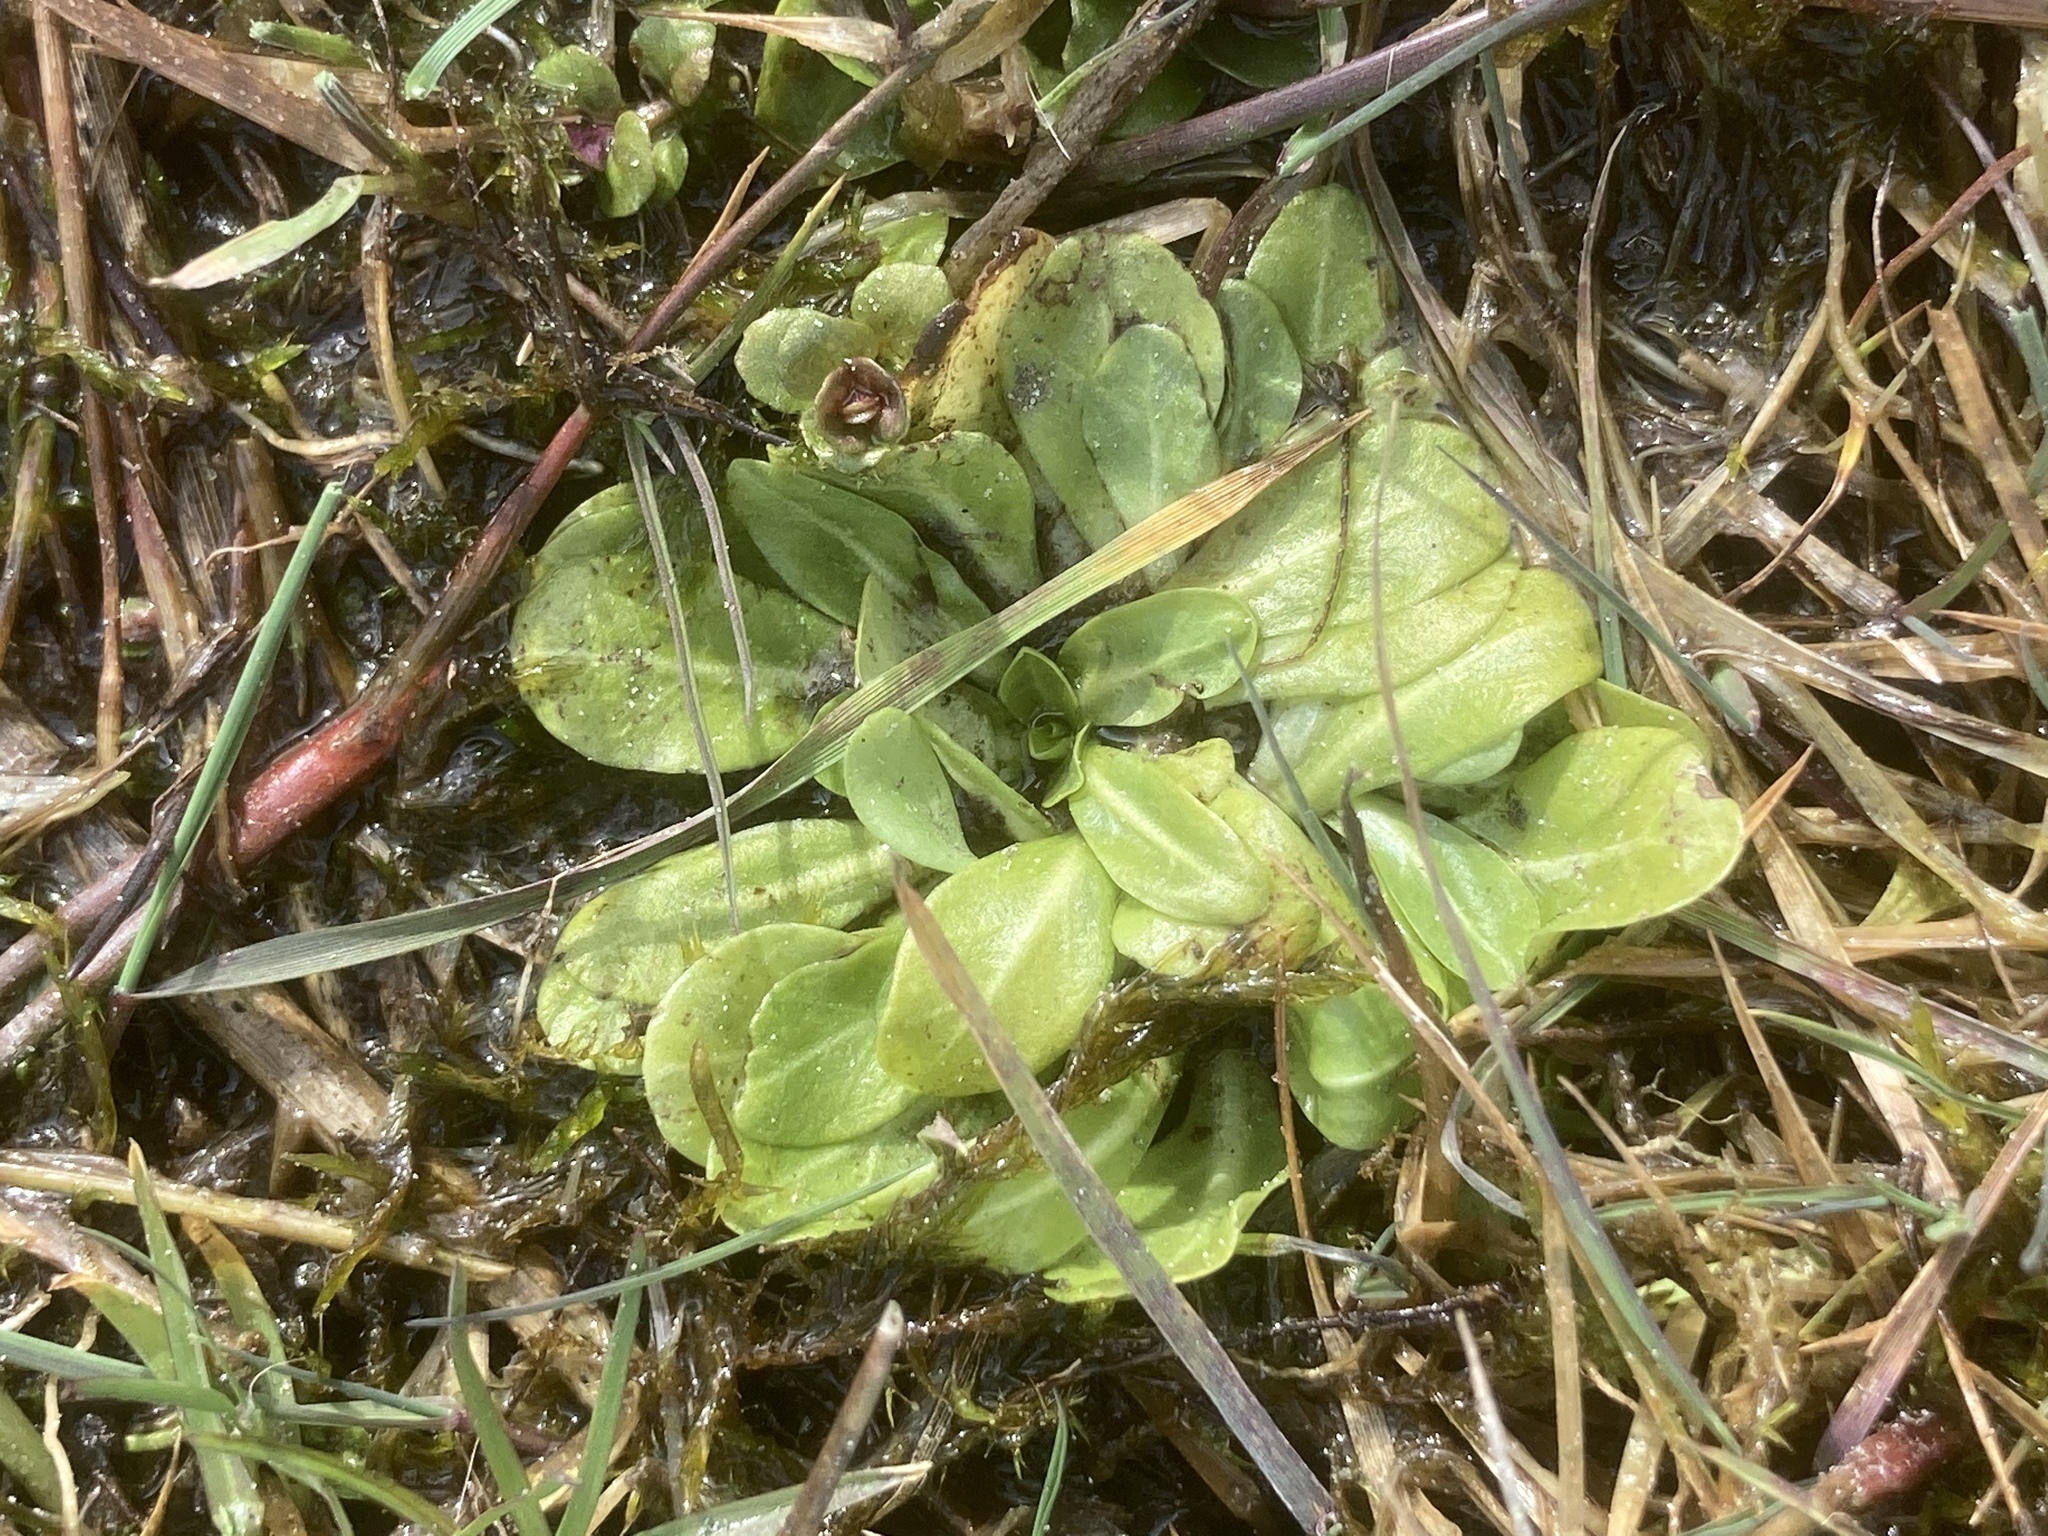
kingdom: Plantae
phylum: Tracheophyta
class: Magnoliopsida
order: Ericales
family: Primulaceae
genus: Samolus
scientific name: Samolus valerandi
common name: Brookweed
